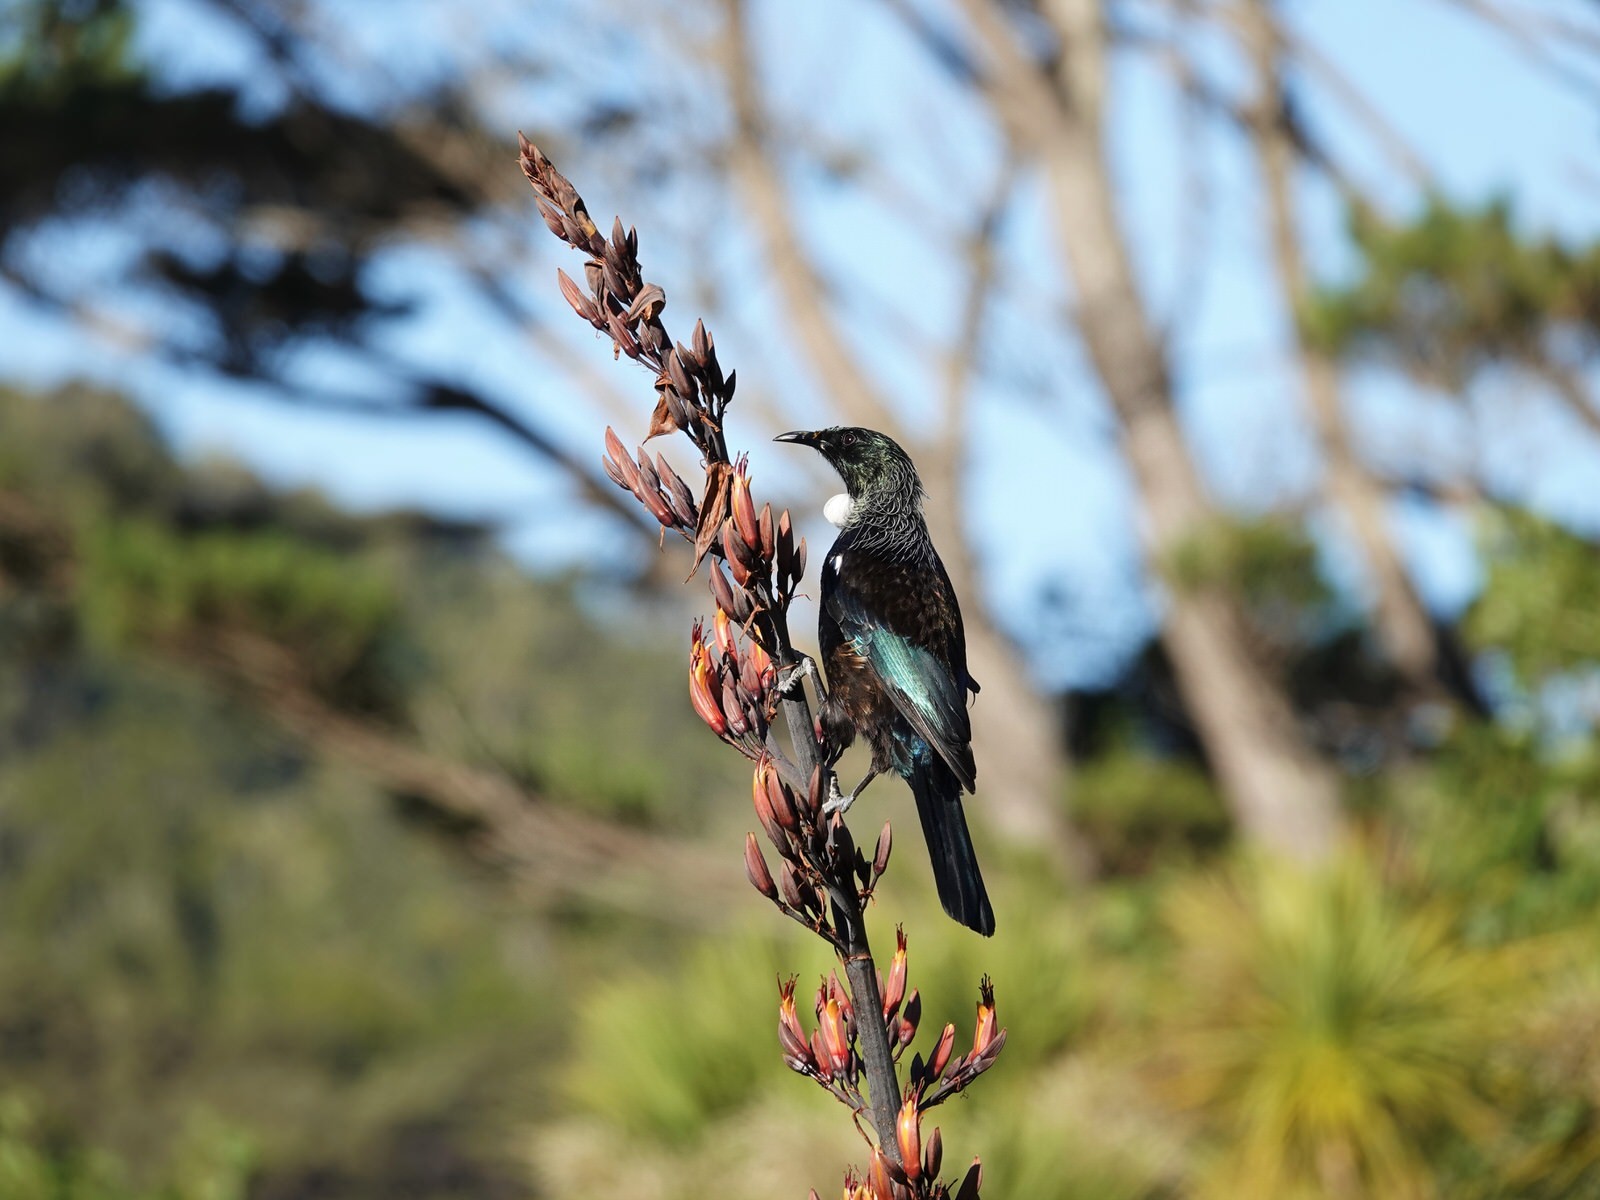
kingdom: Animalia
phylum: Chordata
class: Aves
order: Passeriformes
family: Meliphagidae
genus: Prosthemadera
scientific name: Prosthemadera novaeseelandiae
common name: Tui
